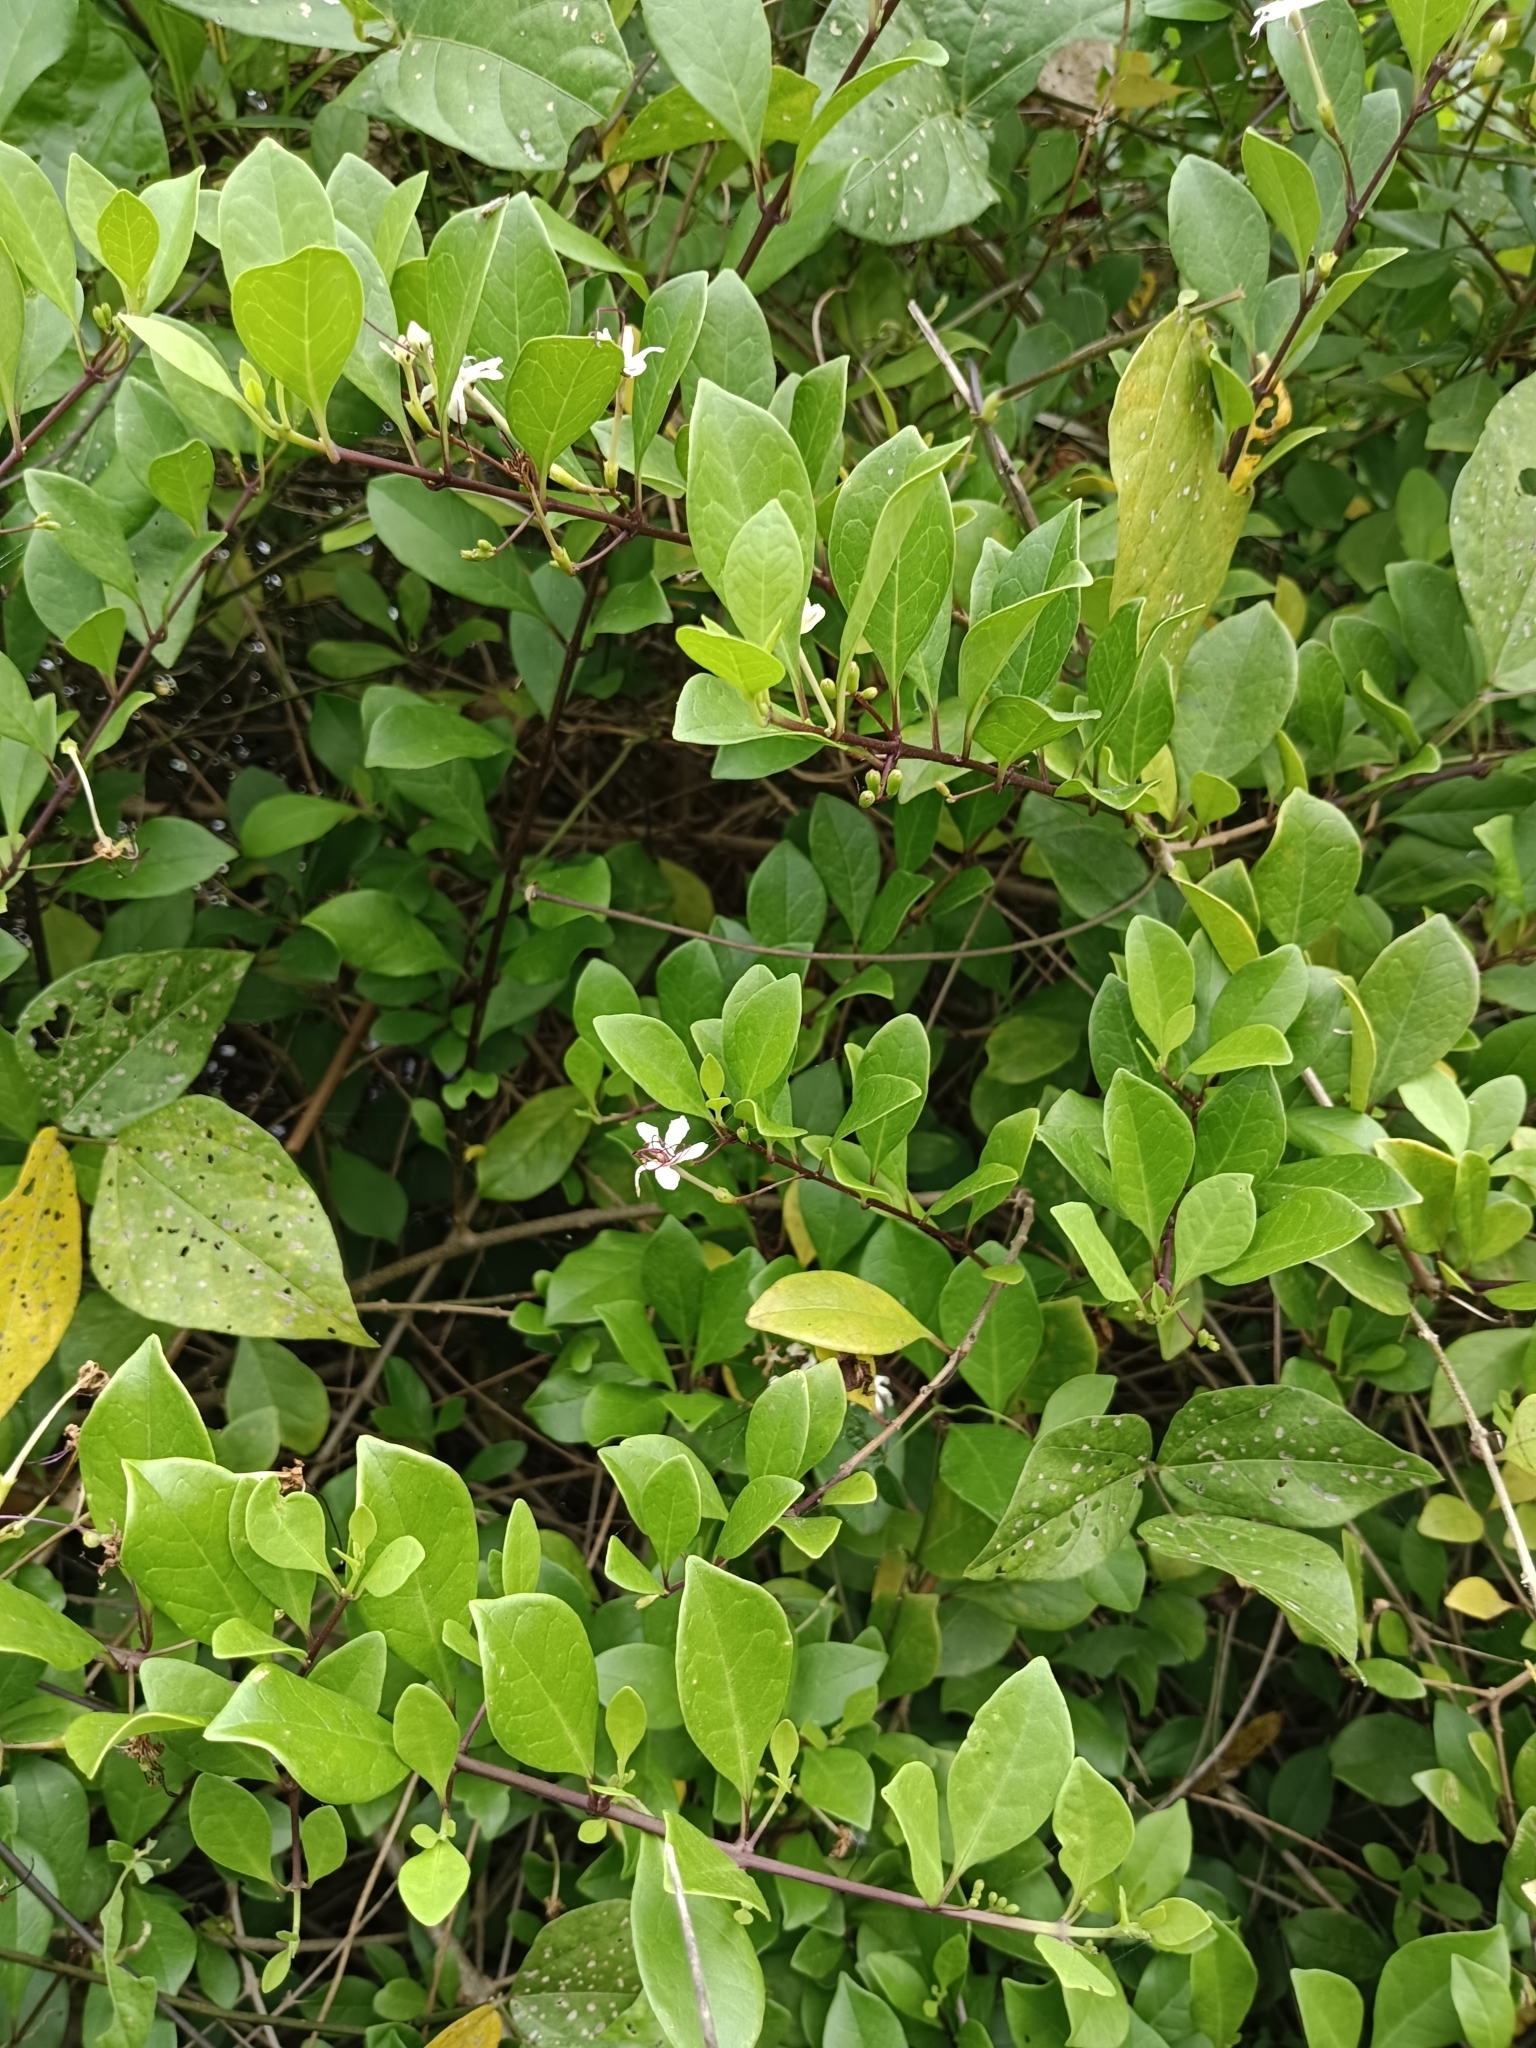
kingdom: Plantae
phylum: Tracheophyta
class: Magnoliopsida
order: Lamiales
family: Lamiaceae
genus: Volkameria
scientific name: Volkameria inermis
